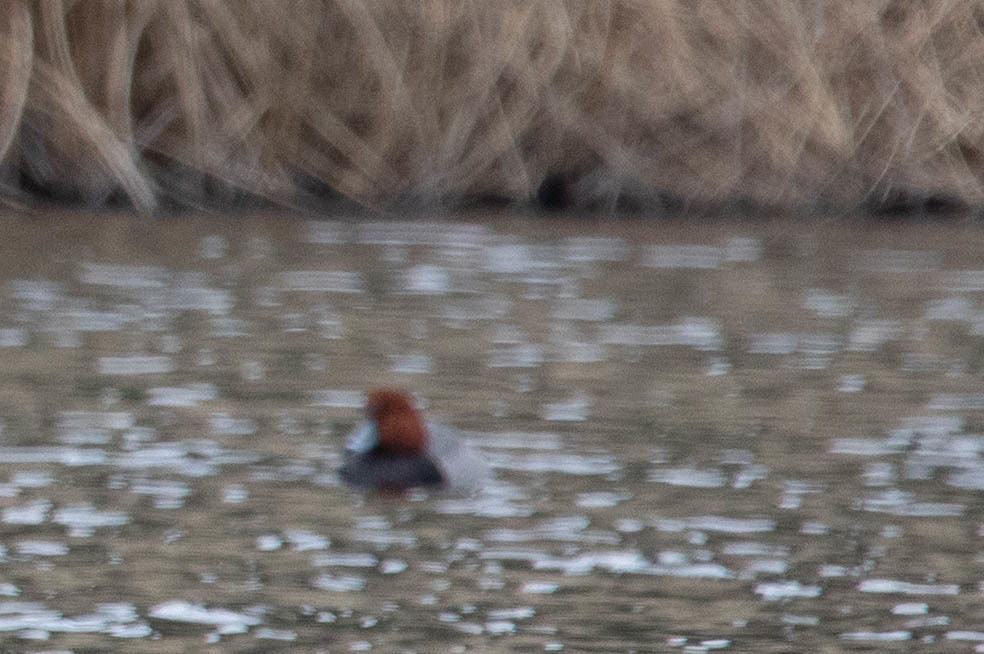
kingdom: Animalia
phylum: Chordata
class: Aves
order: Anseriformes
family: Anatidae
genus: Aythya
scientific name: Aythya americana
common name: Redhead
